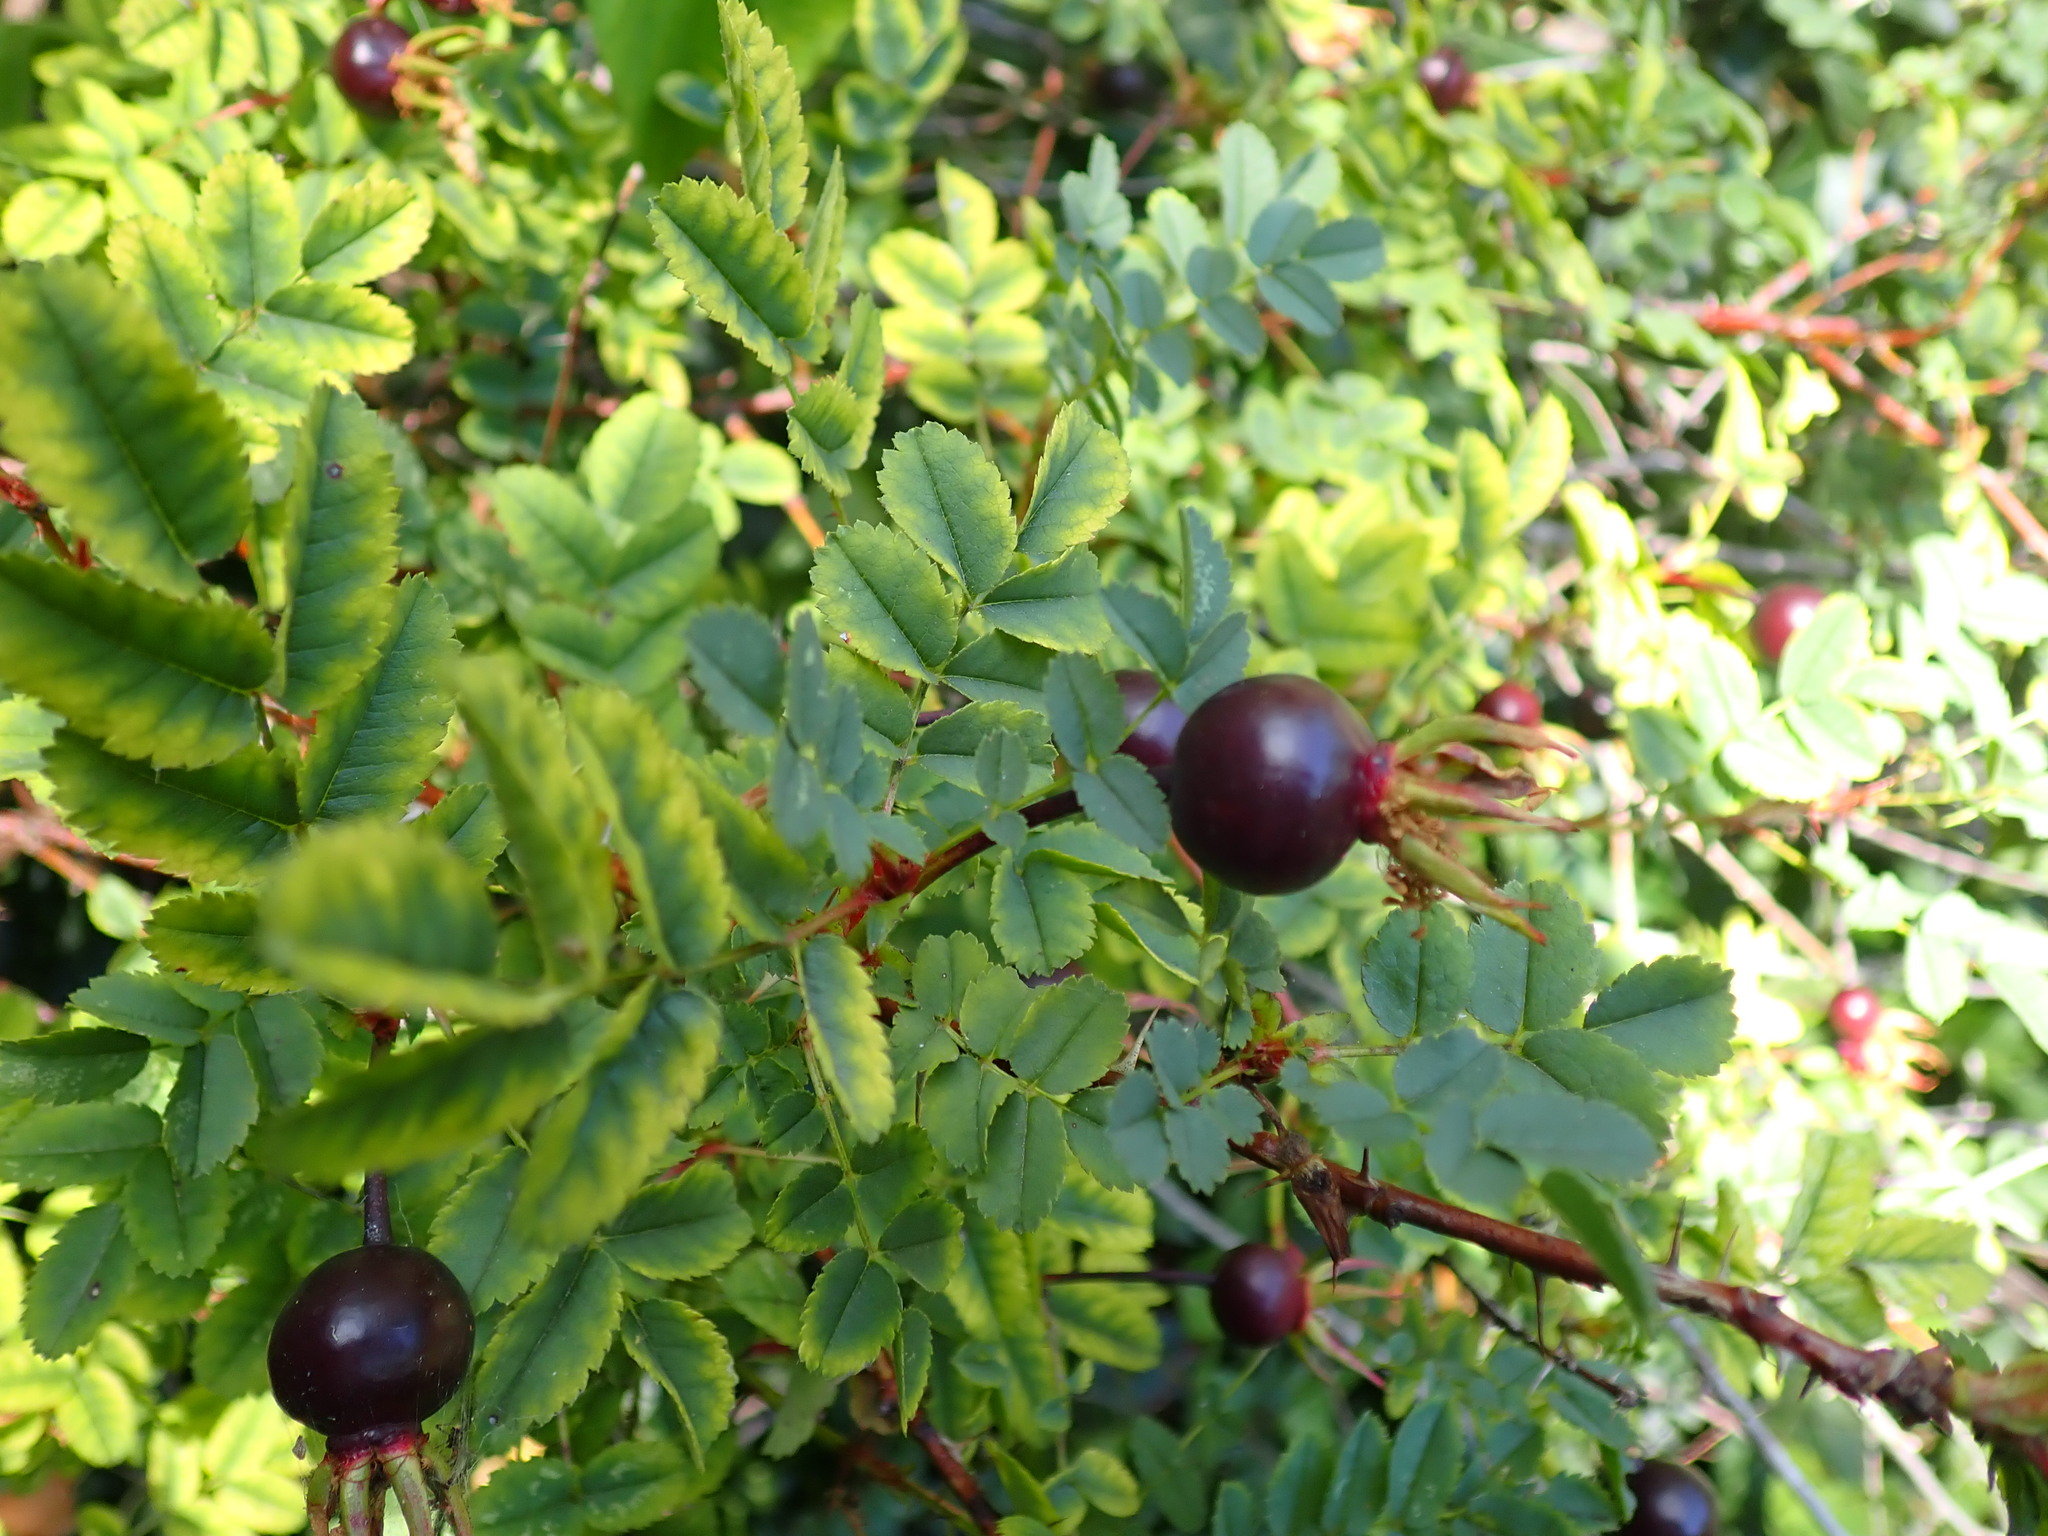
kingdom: Plantae
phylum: Tracheophyta
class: Magnoliopsida
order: Rosales
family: Rosaceae
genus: Rosa
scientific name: Rosa spinosissima
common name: Burnet rose
